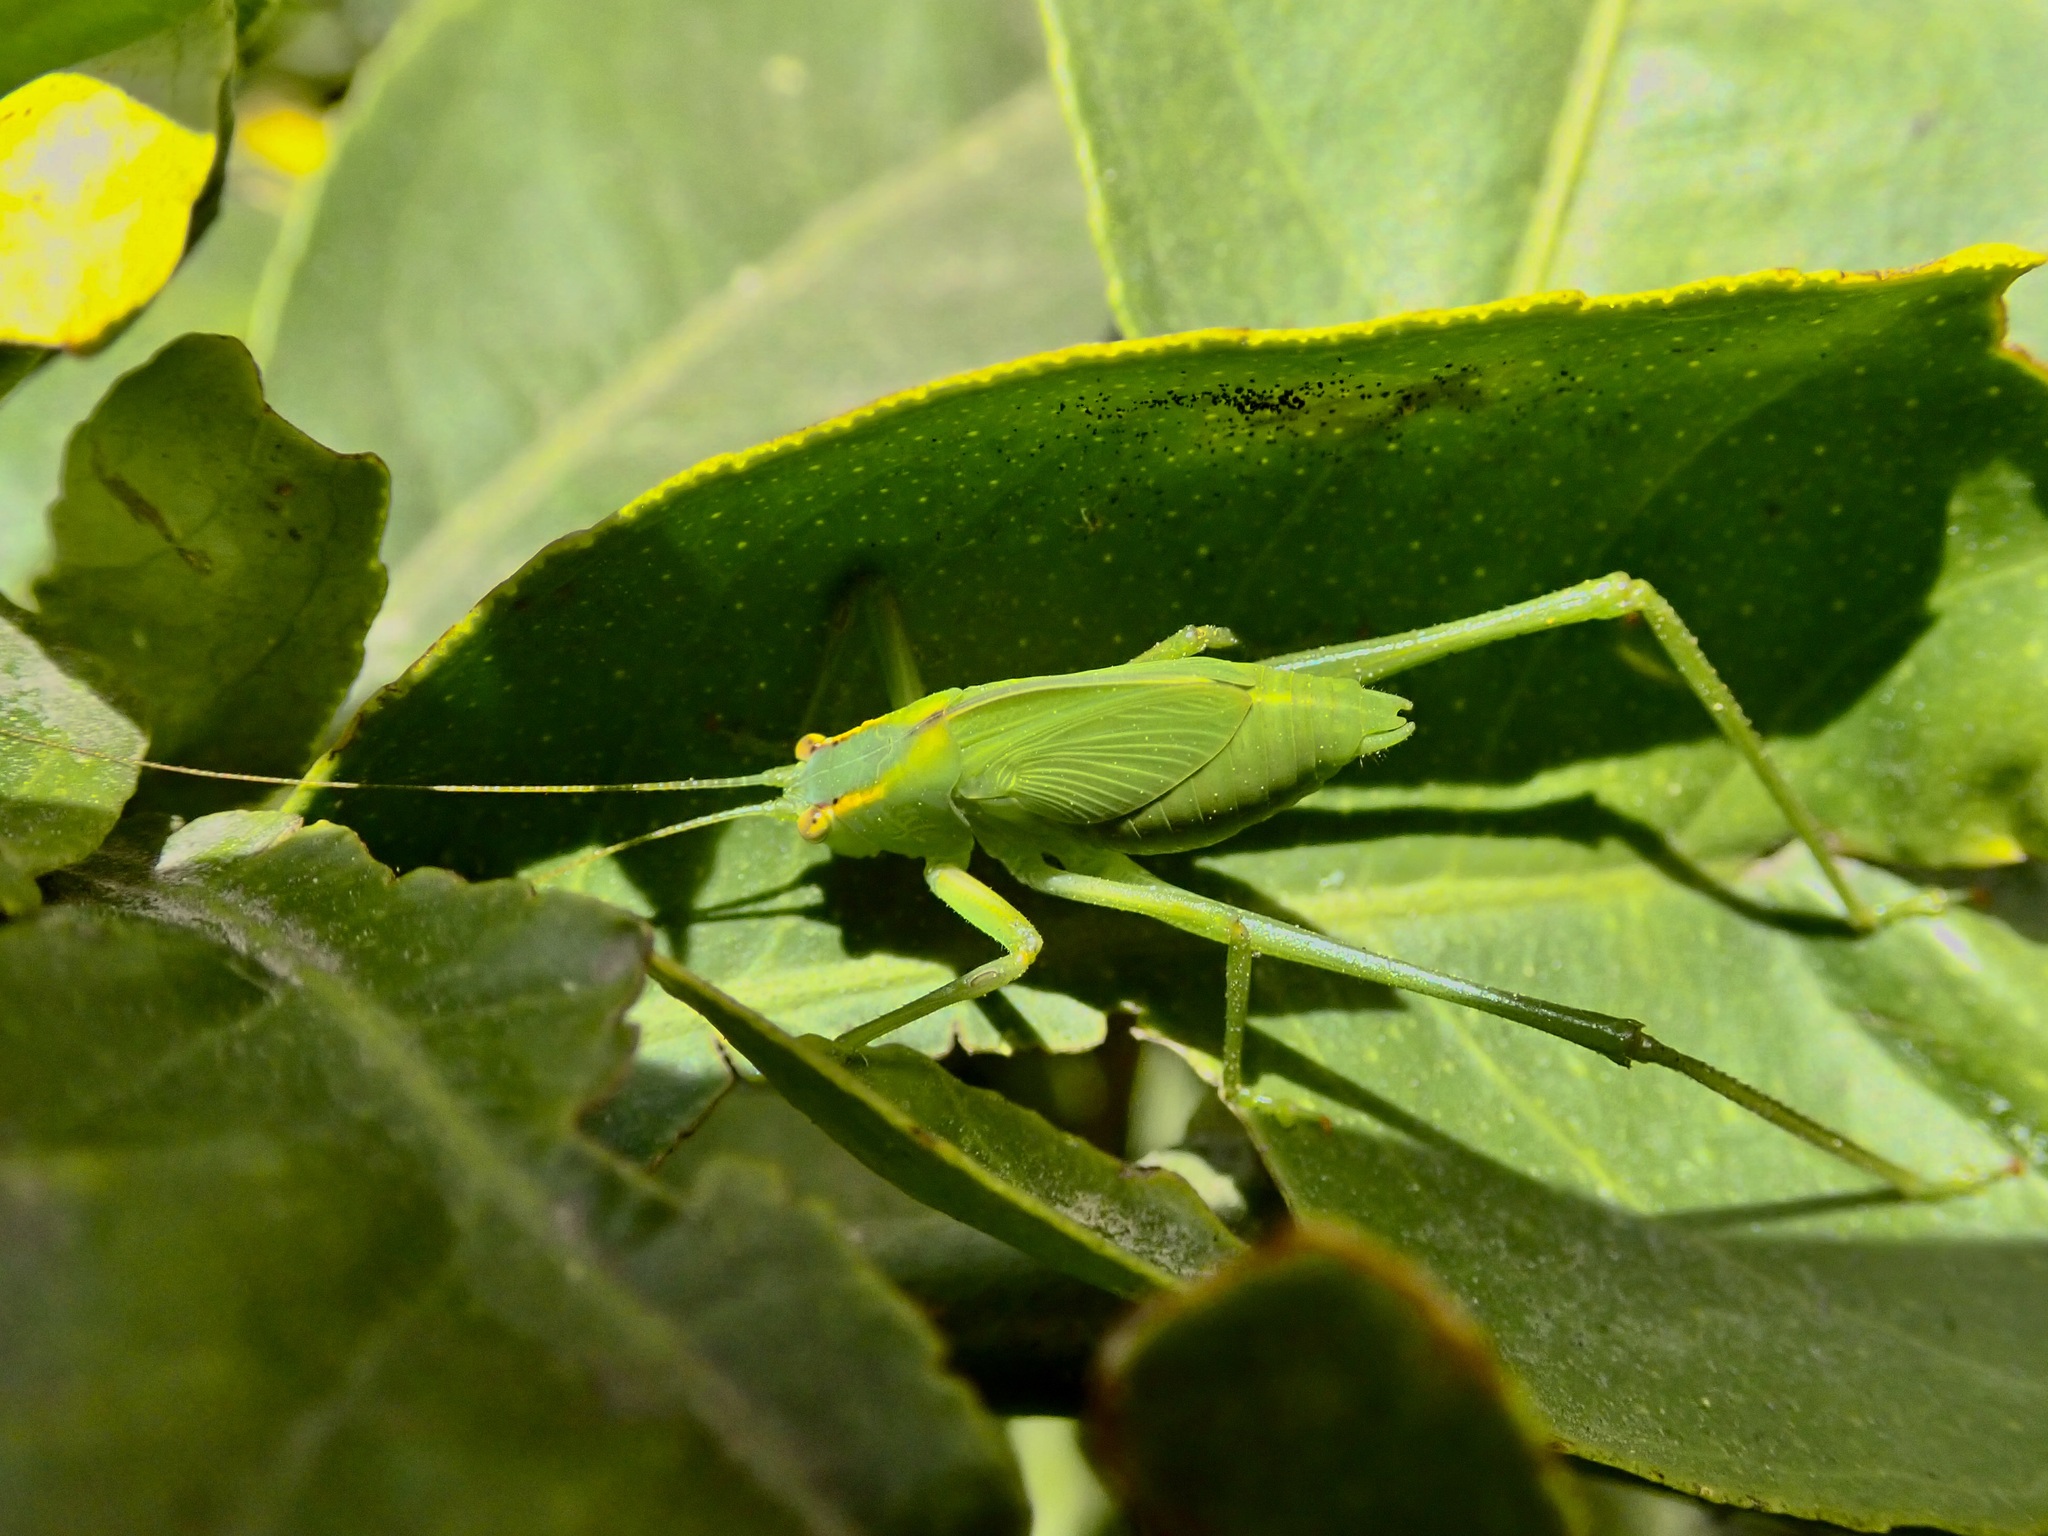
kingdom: Animalia
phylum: Arthropoda
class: Insecta
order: Orthoptera
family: Tettigoniidae
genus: Caedicia
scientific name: Caedicia simplex
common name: Common garden katydid
